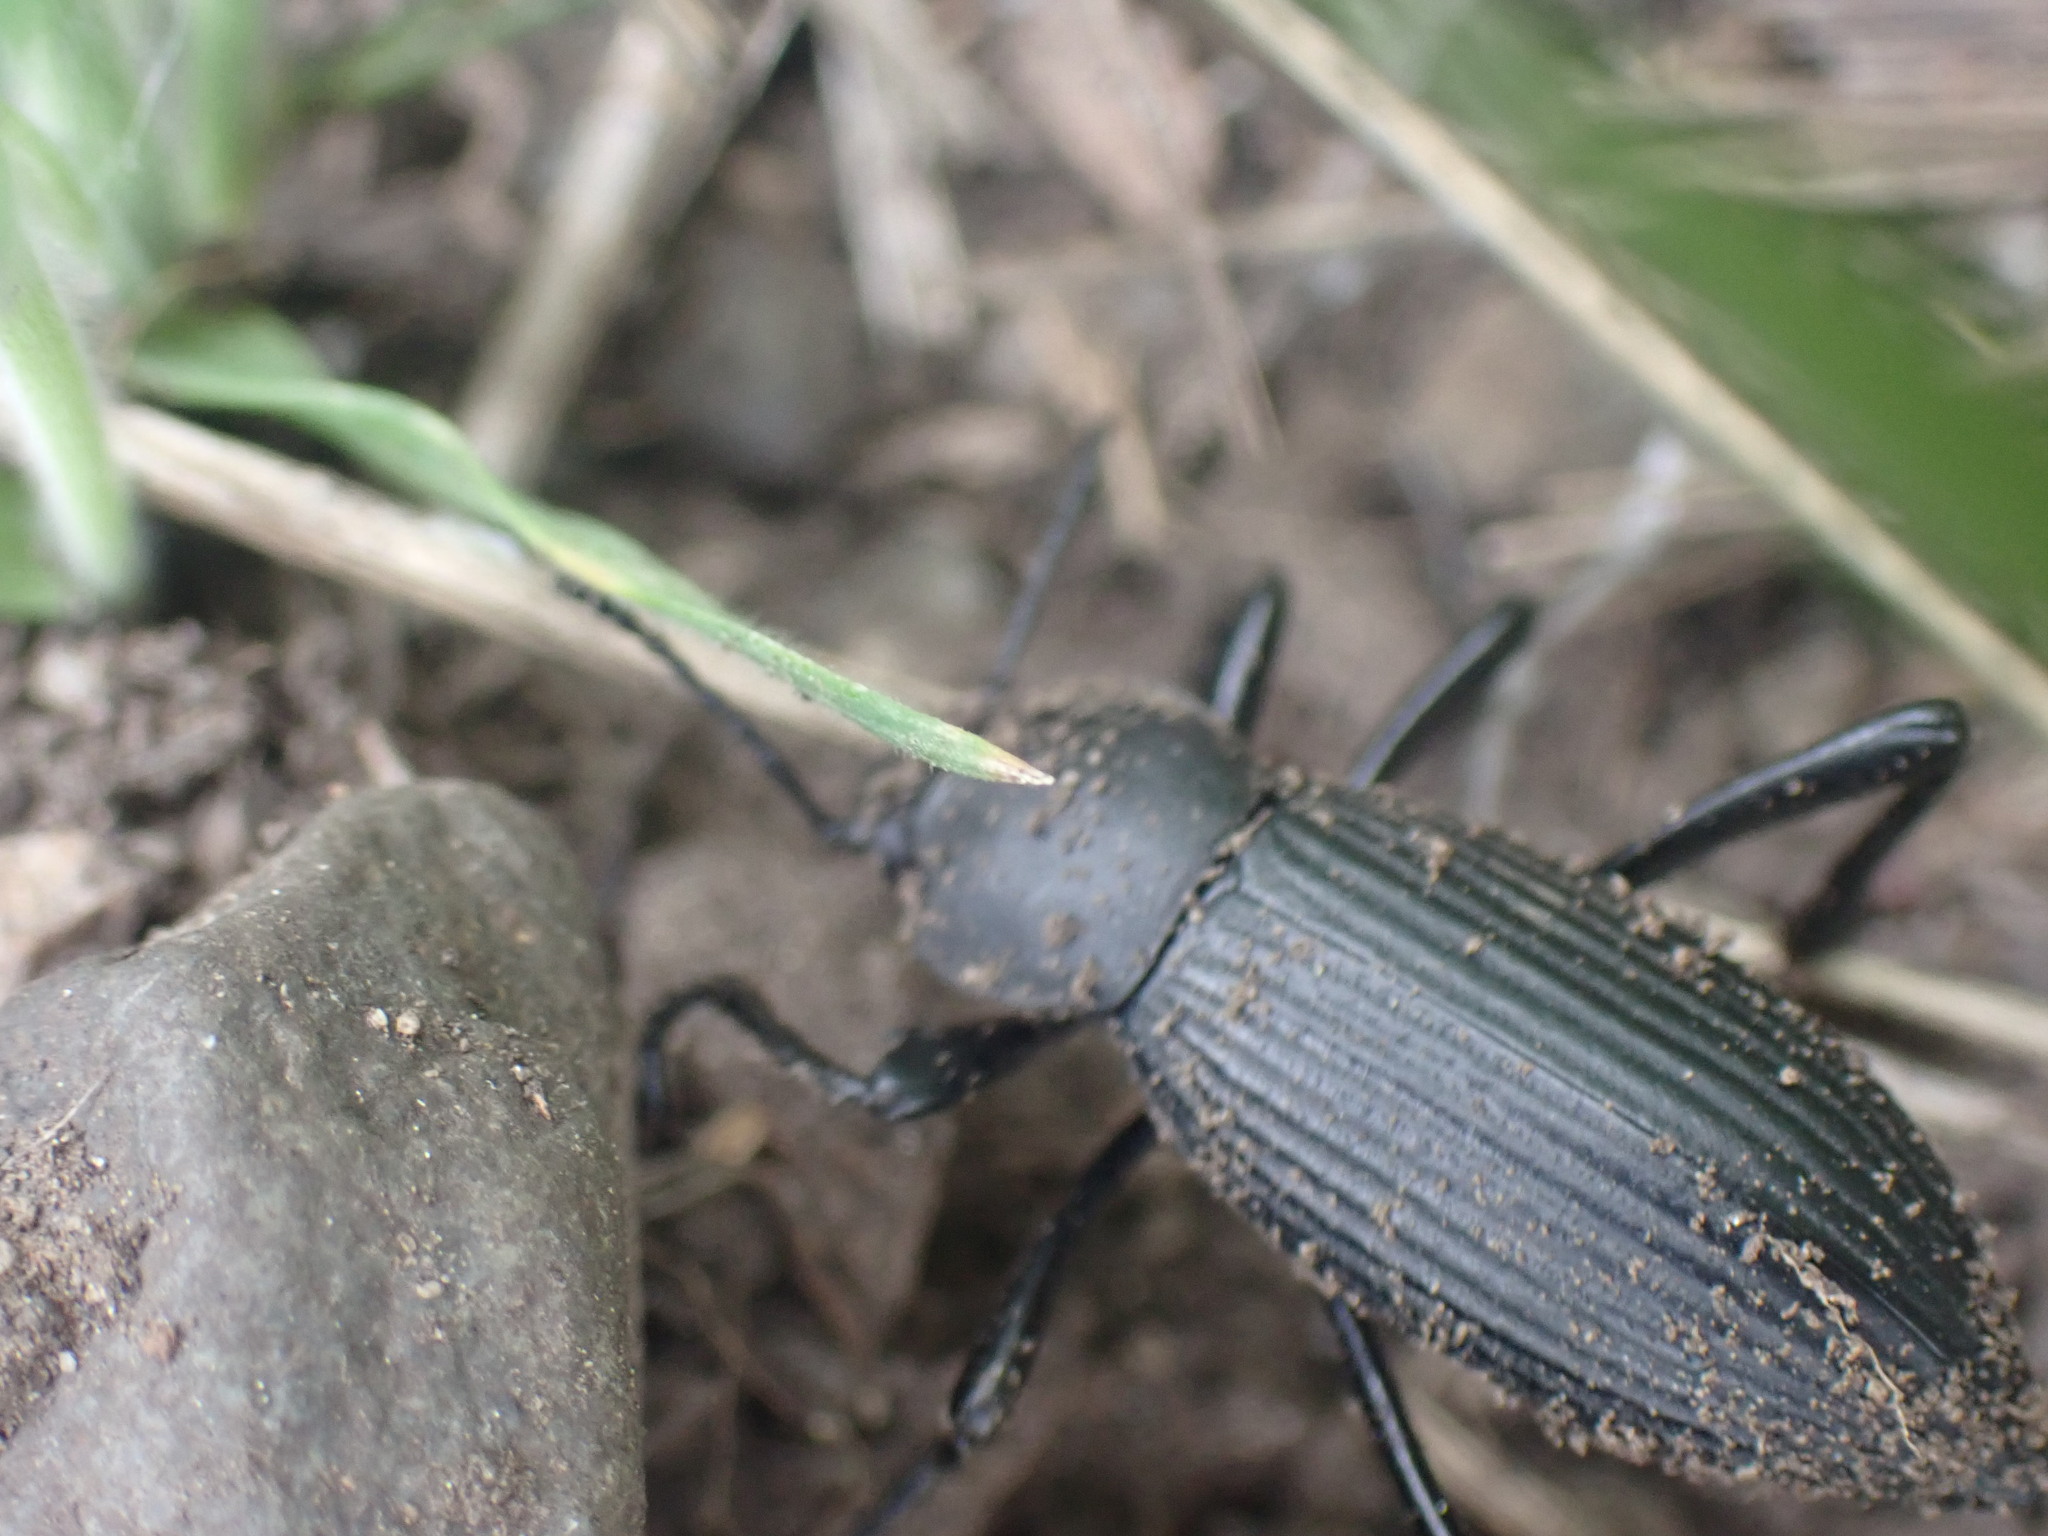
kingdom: Animalia
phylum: Arthropoda
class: Insecta
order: Coleoptera
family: Tenebrionidae
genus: Eleodes
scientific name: Eleodes hispilabris
